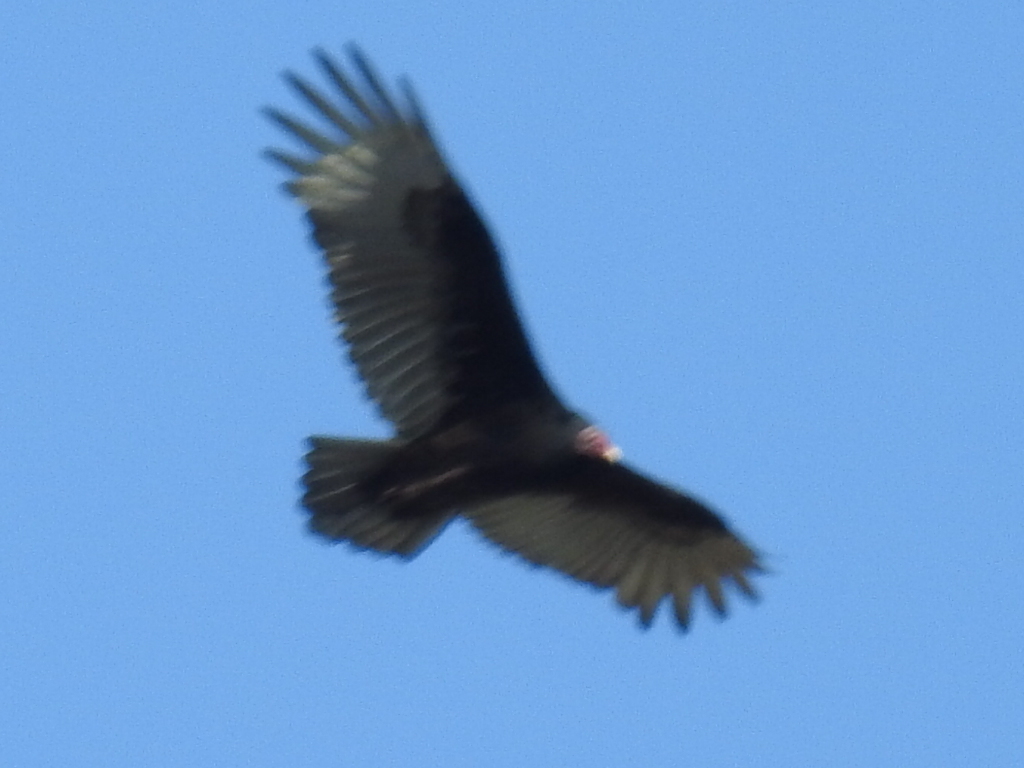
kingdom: Animalia
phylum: Chordata
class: Aves
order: Accipitriformes
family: Cathartidae
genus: Cathartes
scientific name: Cathartes aura
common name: Turkey vulture
